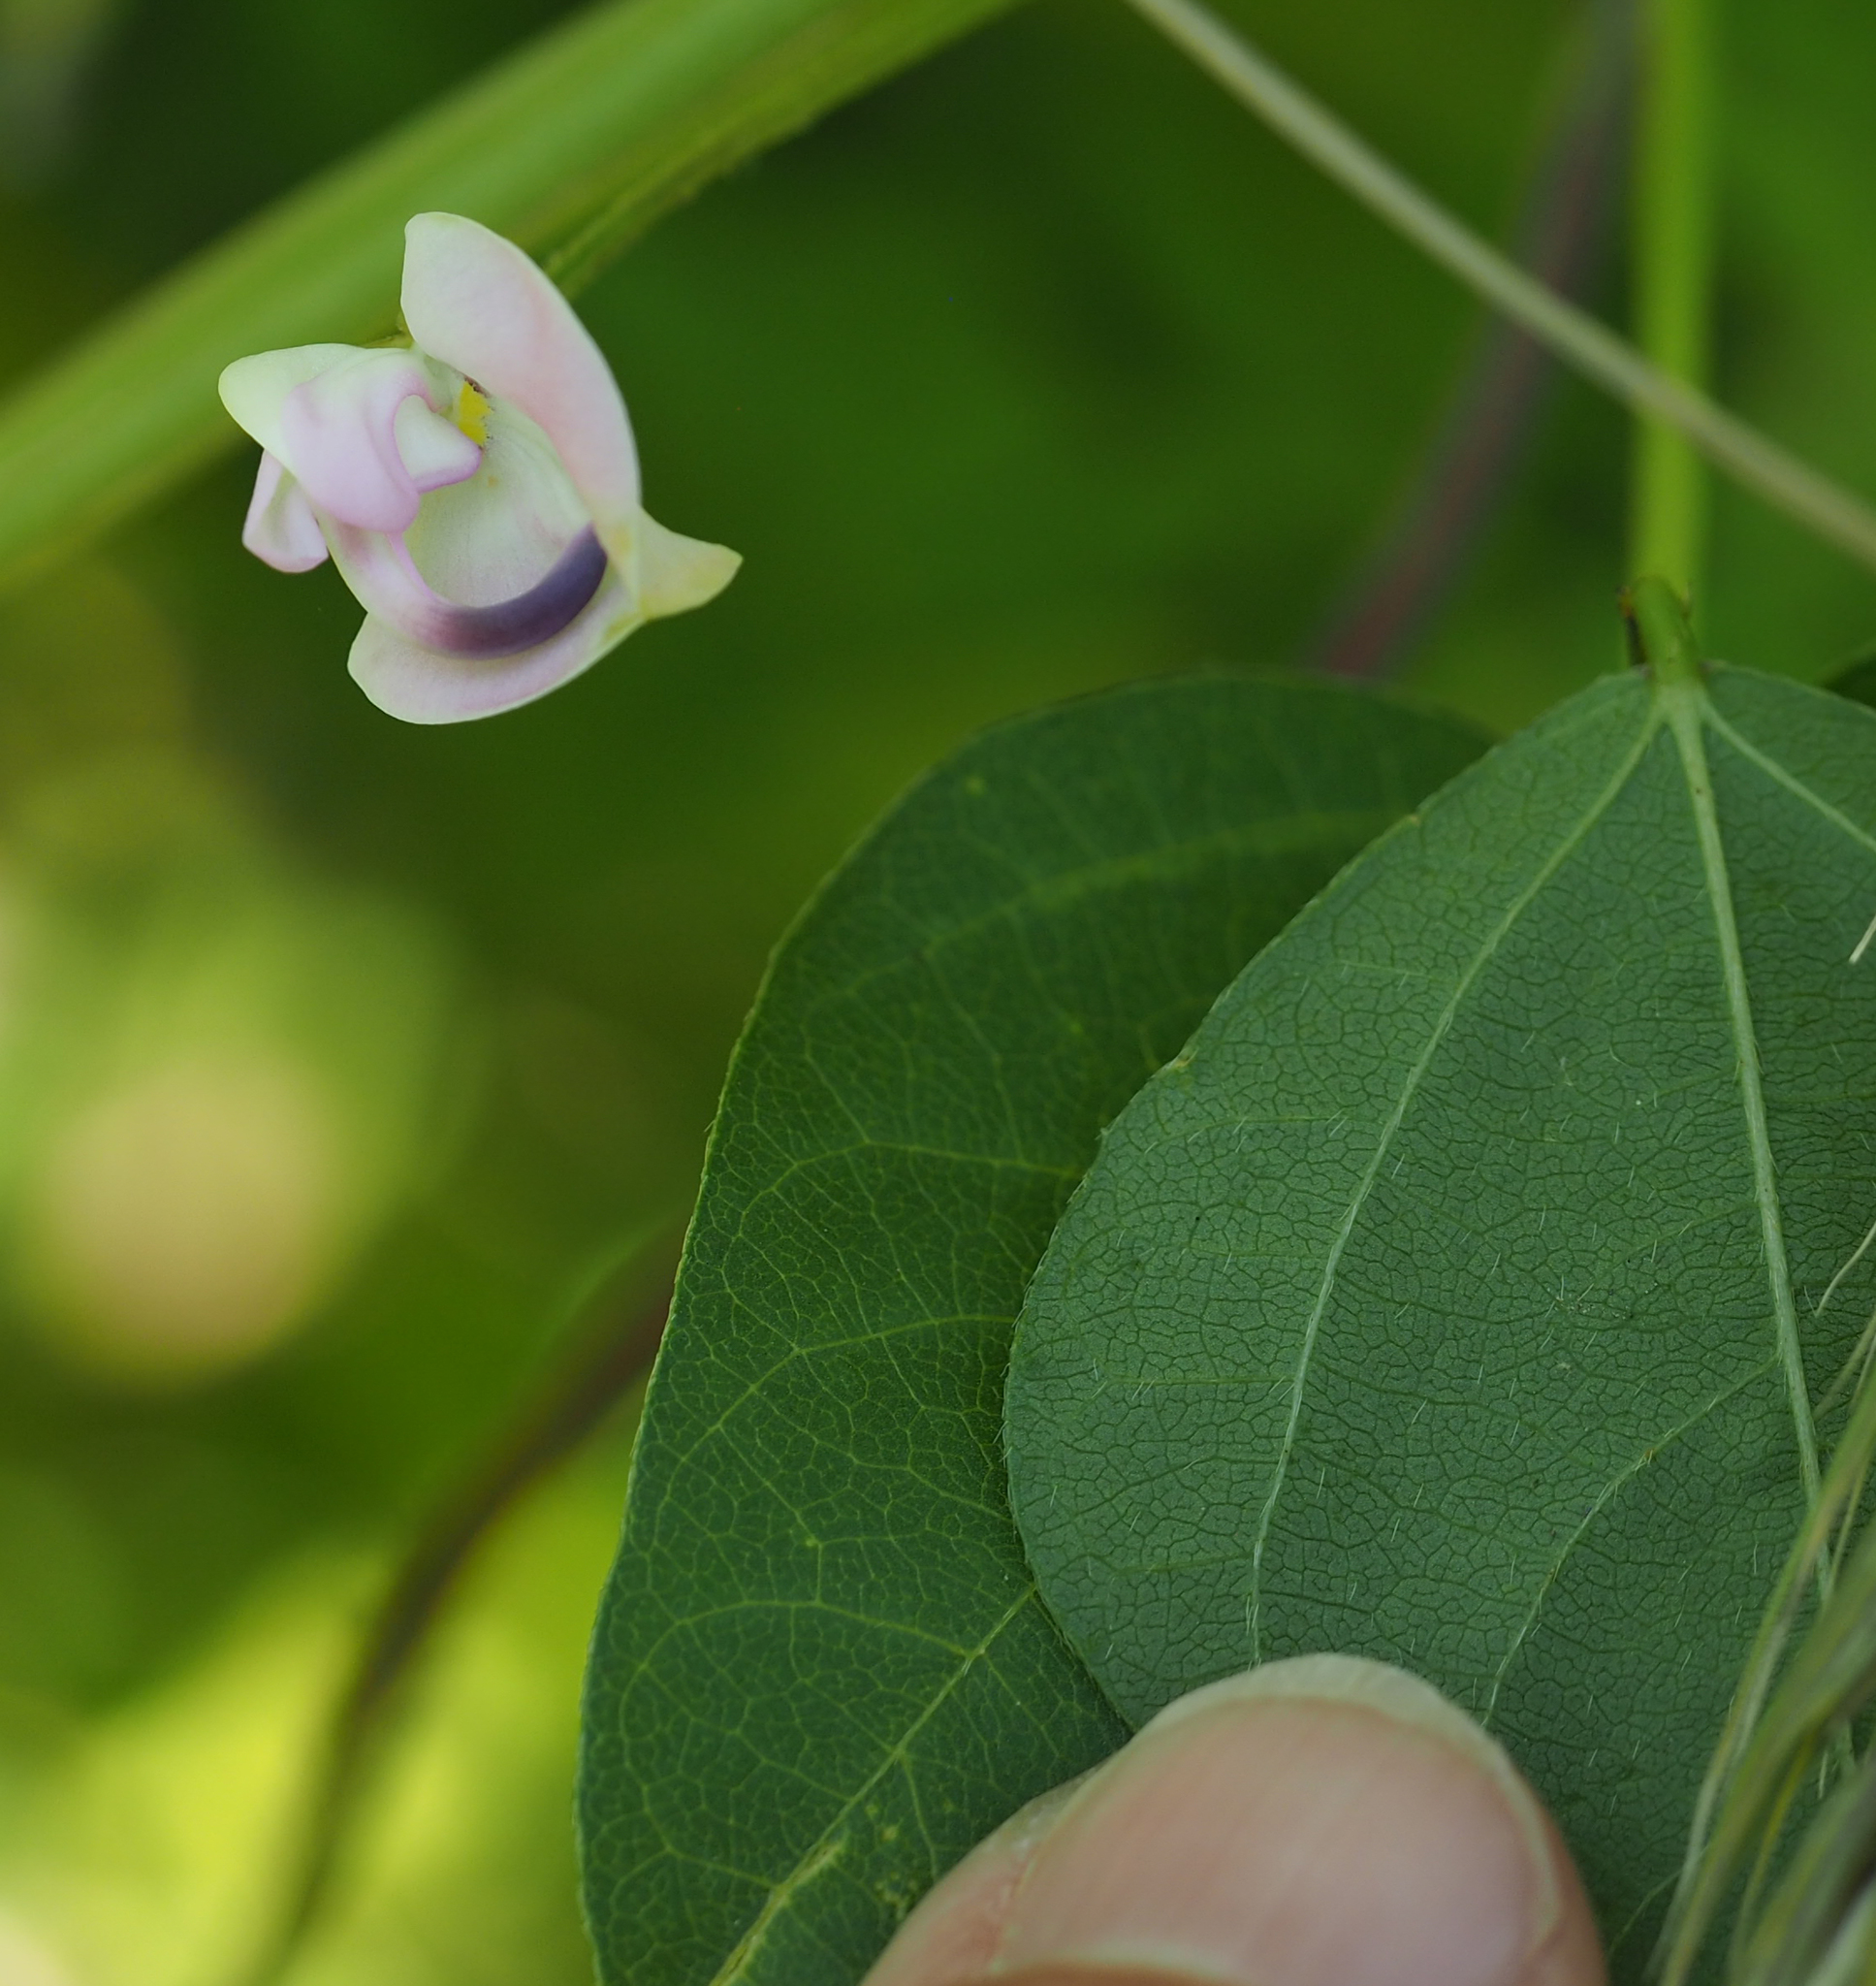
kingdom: Plantae
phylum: Tracheophyta
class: Magnoliopsida
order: Fabales
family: Fabaceae
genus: Strophostyles
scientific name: Strophostyles helvola
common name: Trailing wild bean
